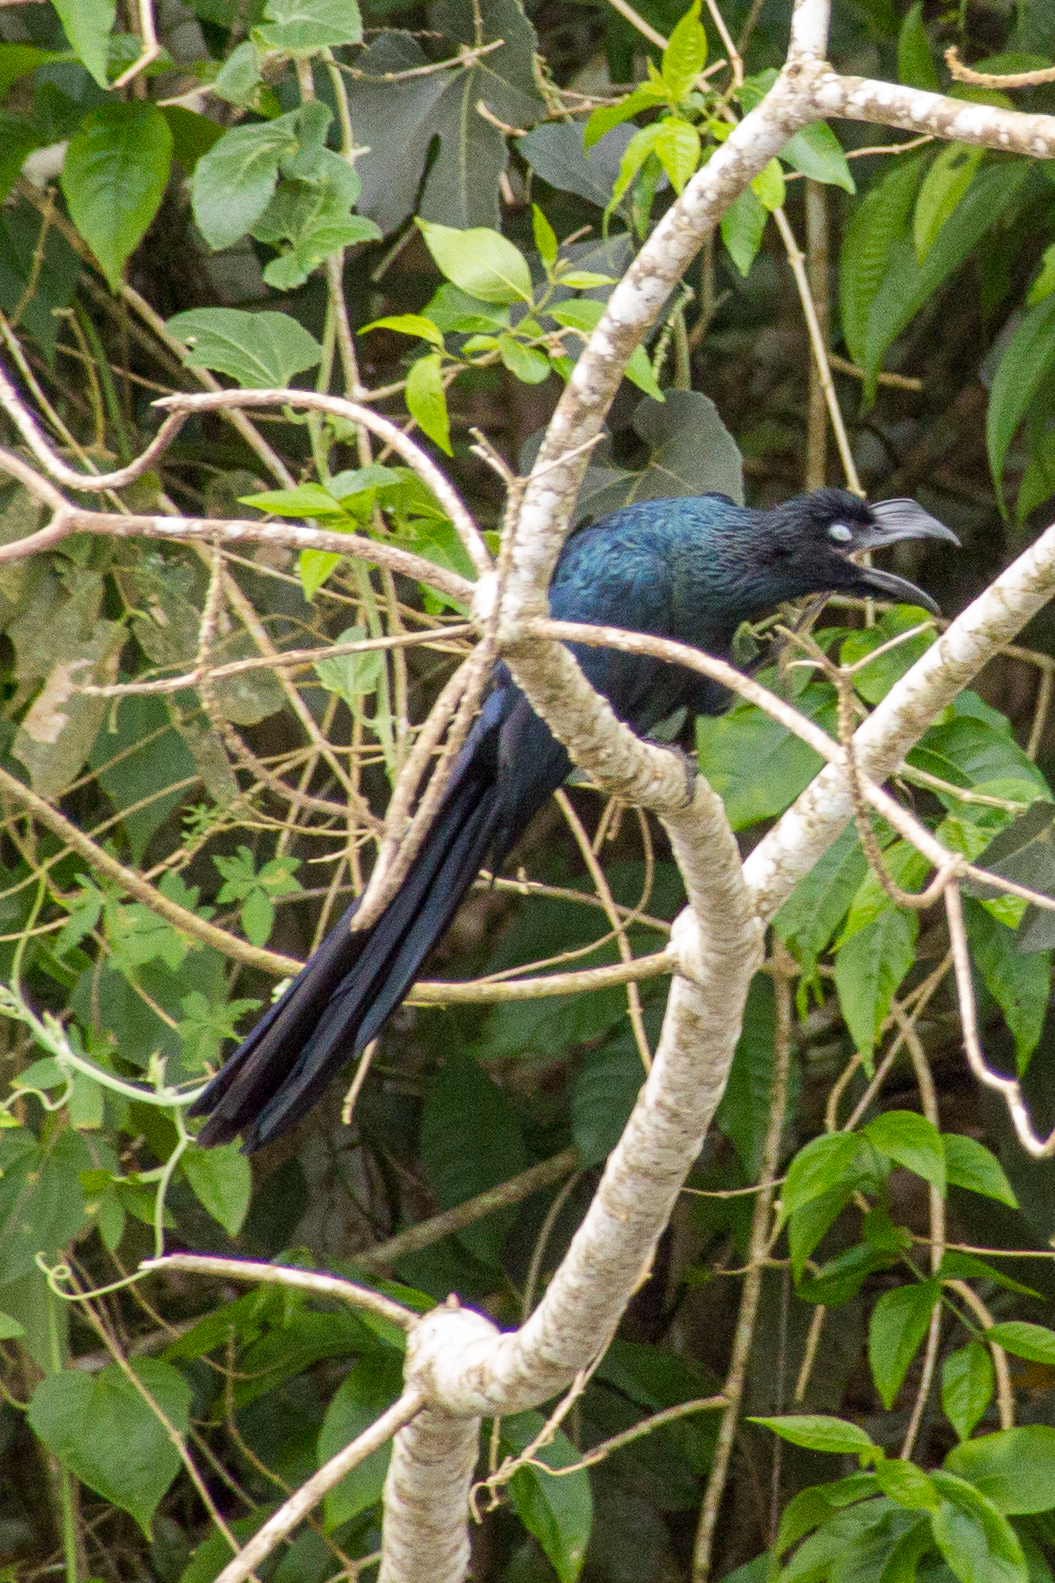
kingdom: Animalia
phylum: Chordata
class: Aves
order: Cuculiformes
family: Cuculidae
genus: Crotophaga
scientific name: Crotophaga major
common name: Greater ani
